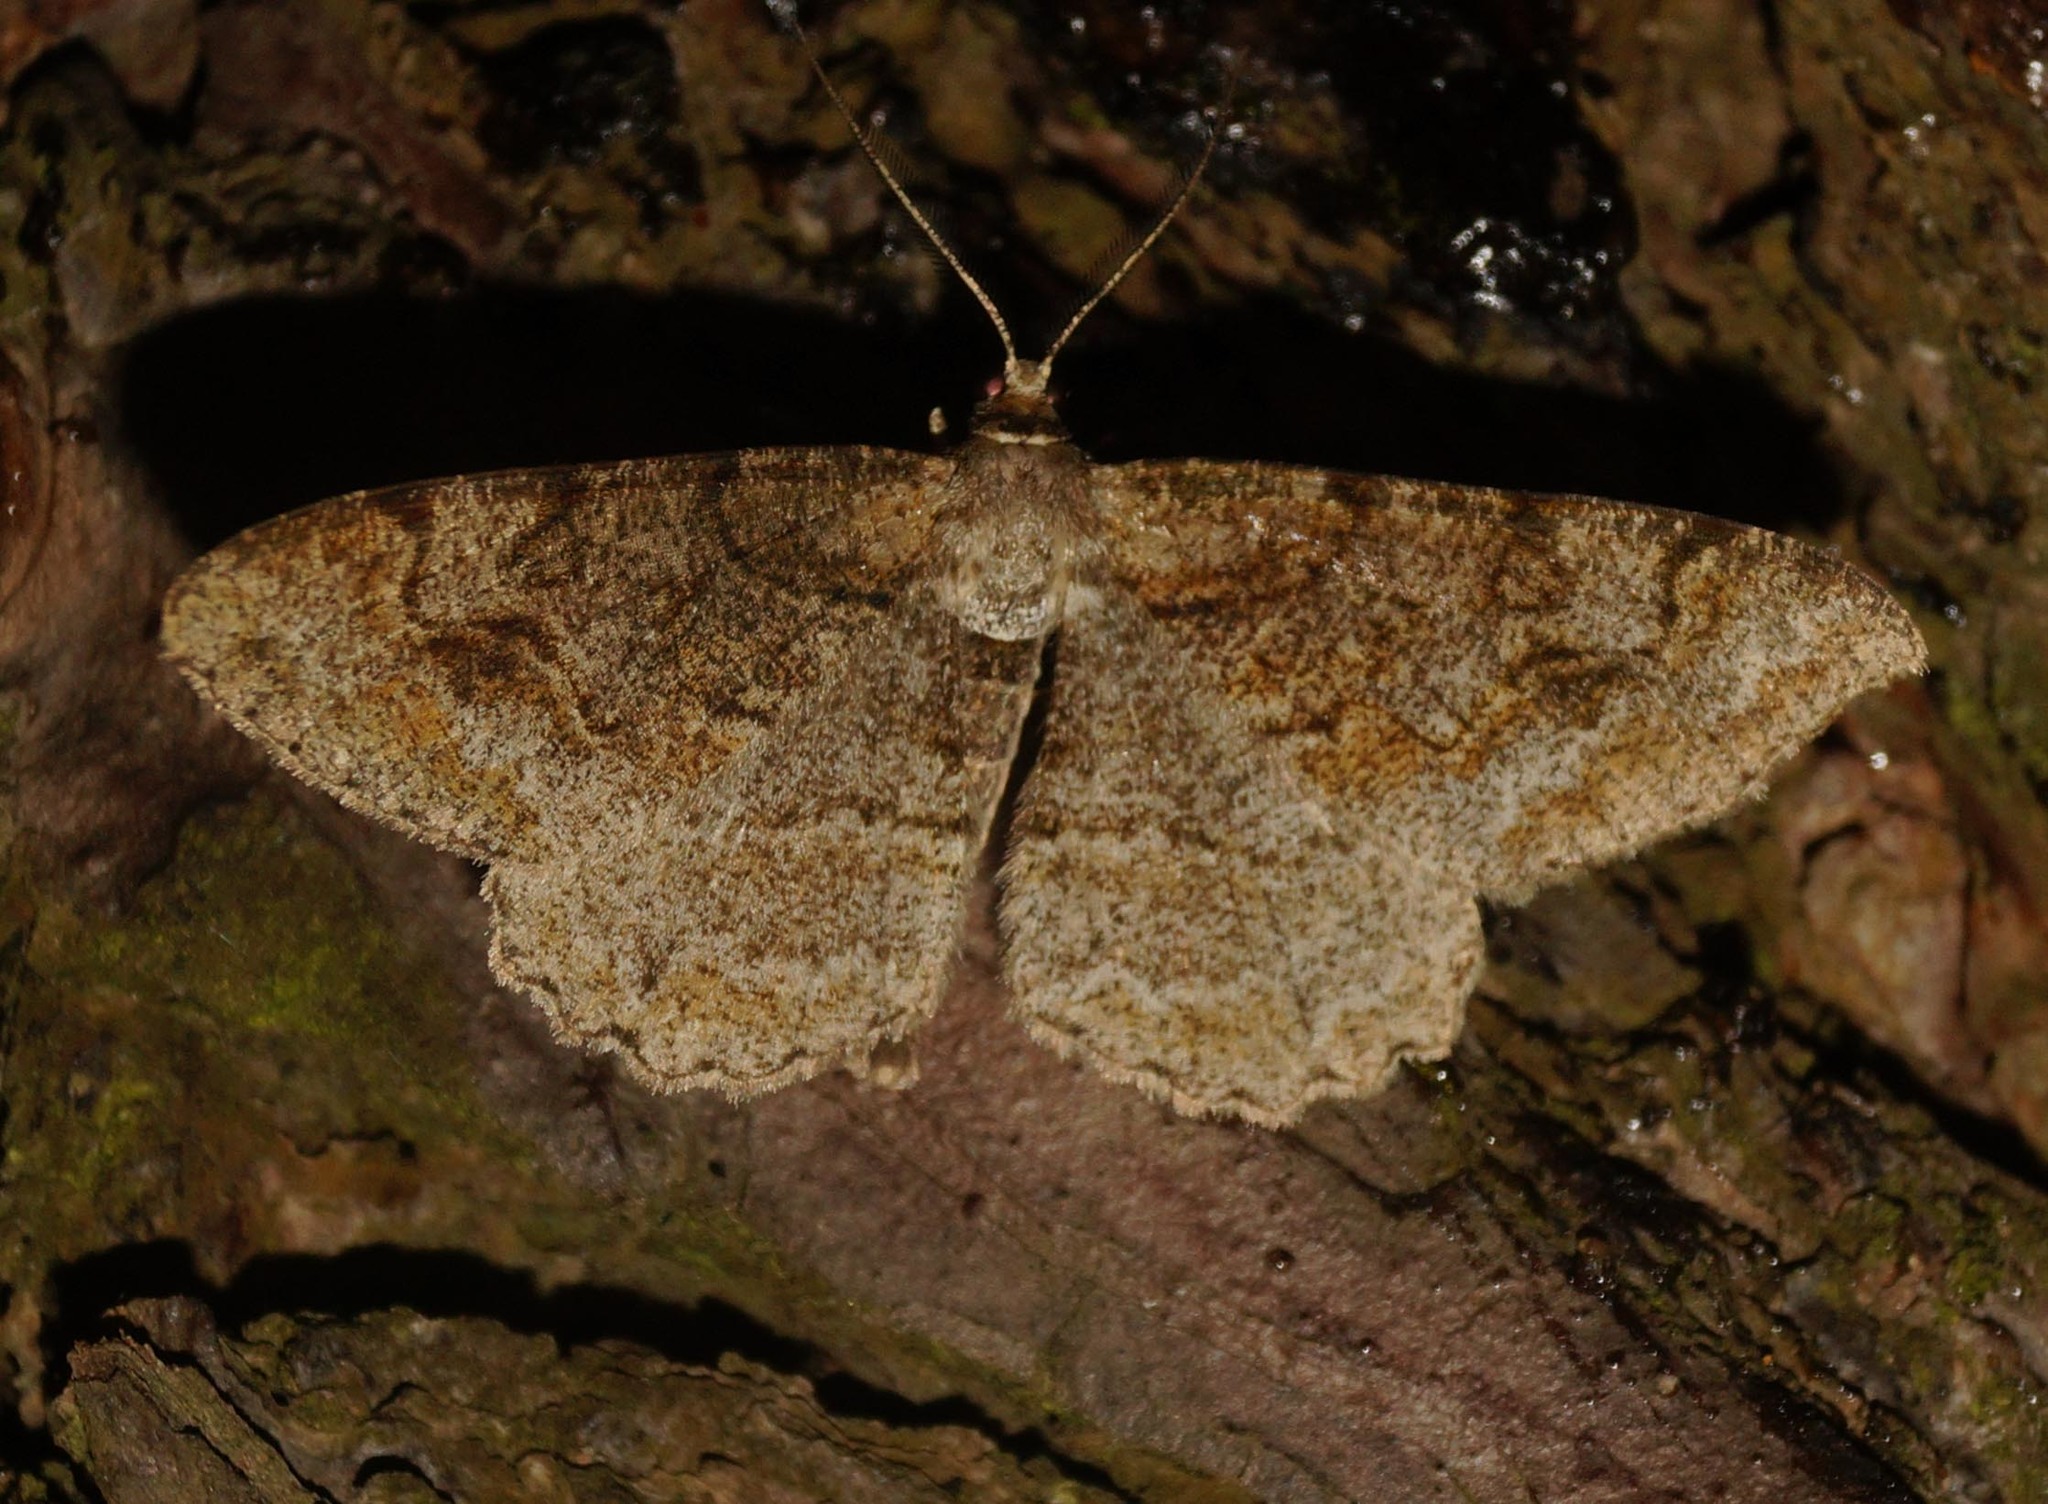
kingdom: Animalia
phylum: Arthropoda
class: Insecta
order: Lepidoptera
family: Geometridae
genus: Alcis
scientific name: Alcis repandata
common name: Mottled beauty
